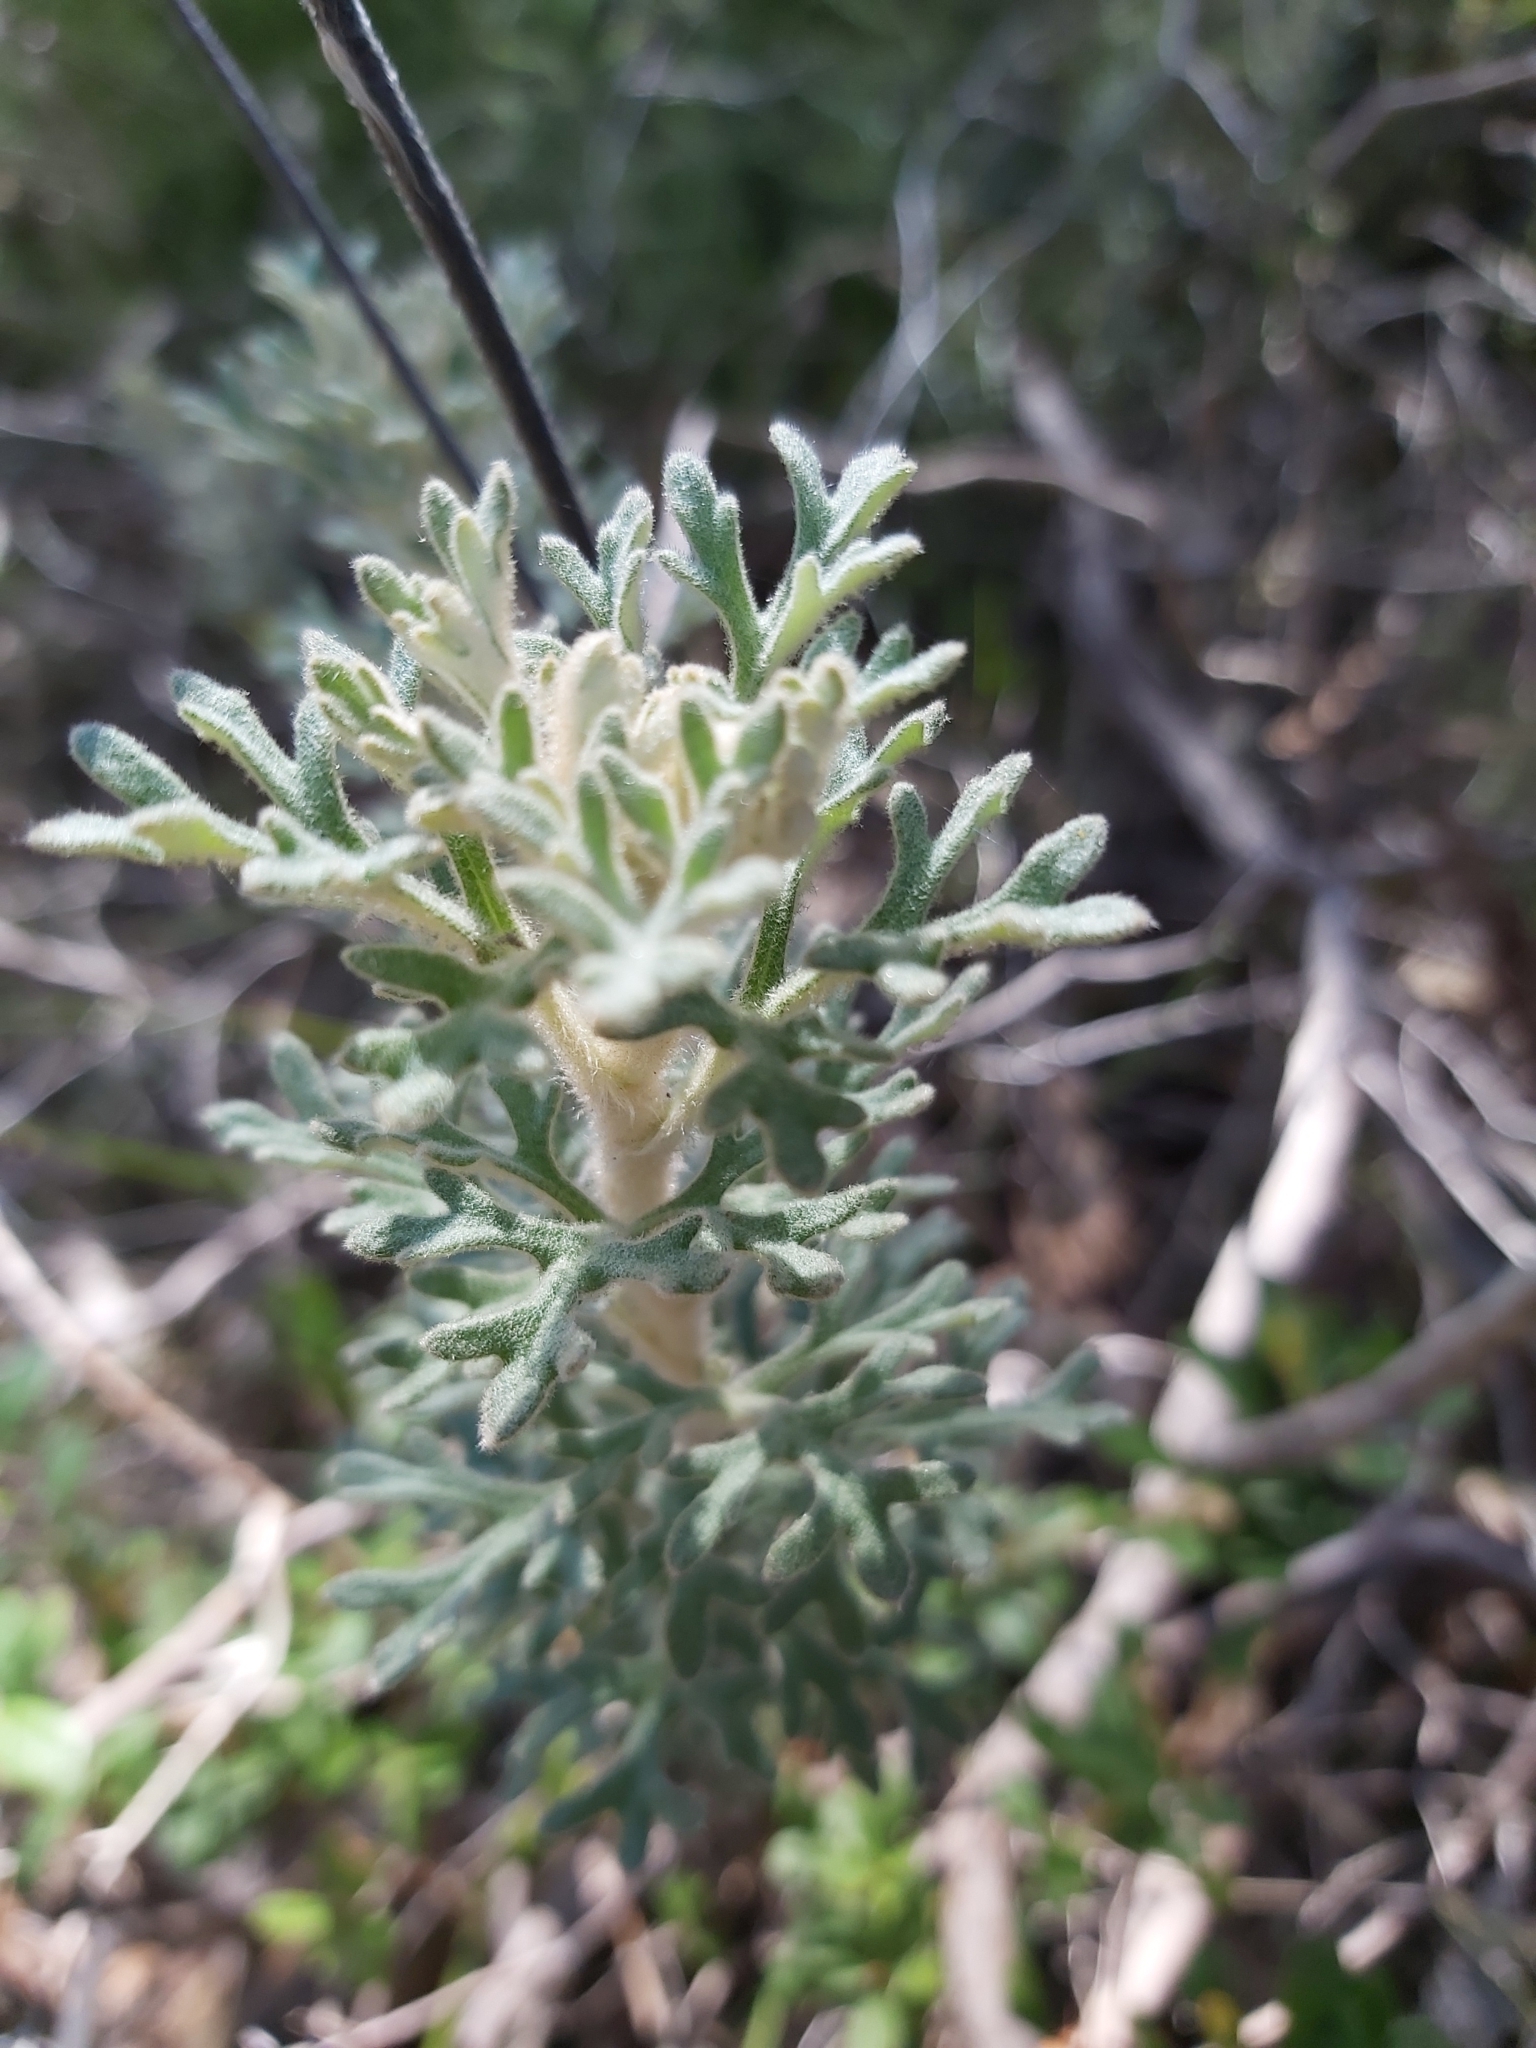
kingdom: Plantae
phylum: Tracheophyta
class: Magnoliopsida
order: Apiales
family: Apiaceae
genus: Actinotus
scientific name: Actinotus helianthi
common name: Flannel-flower
